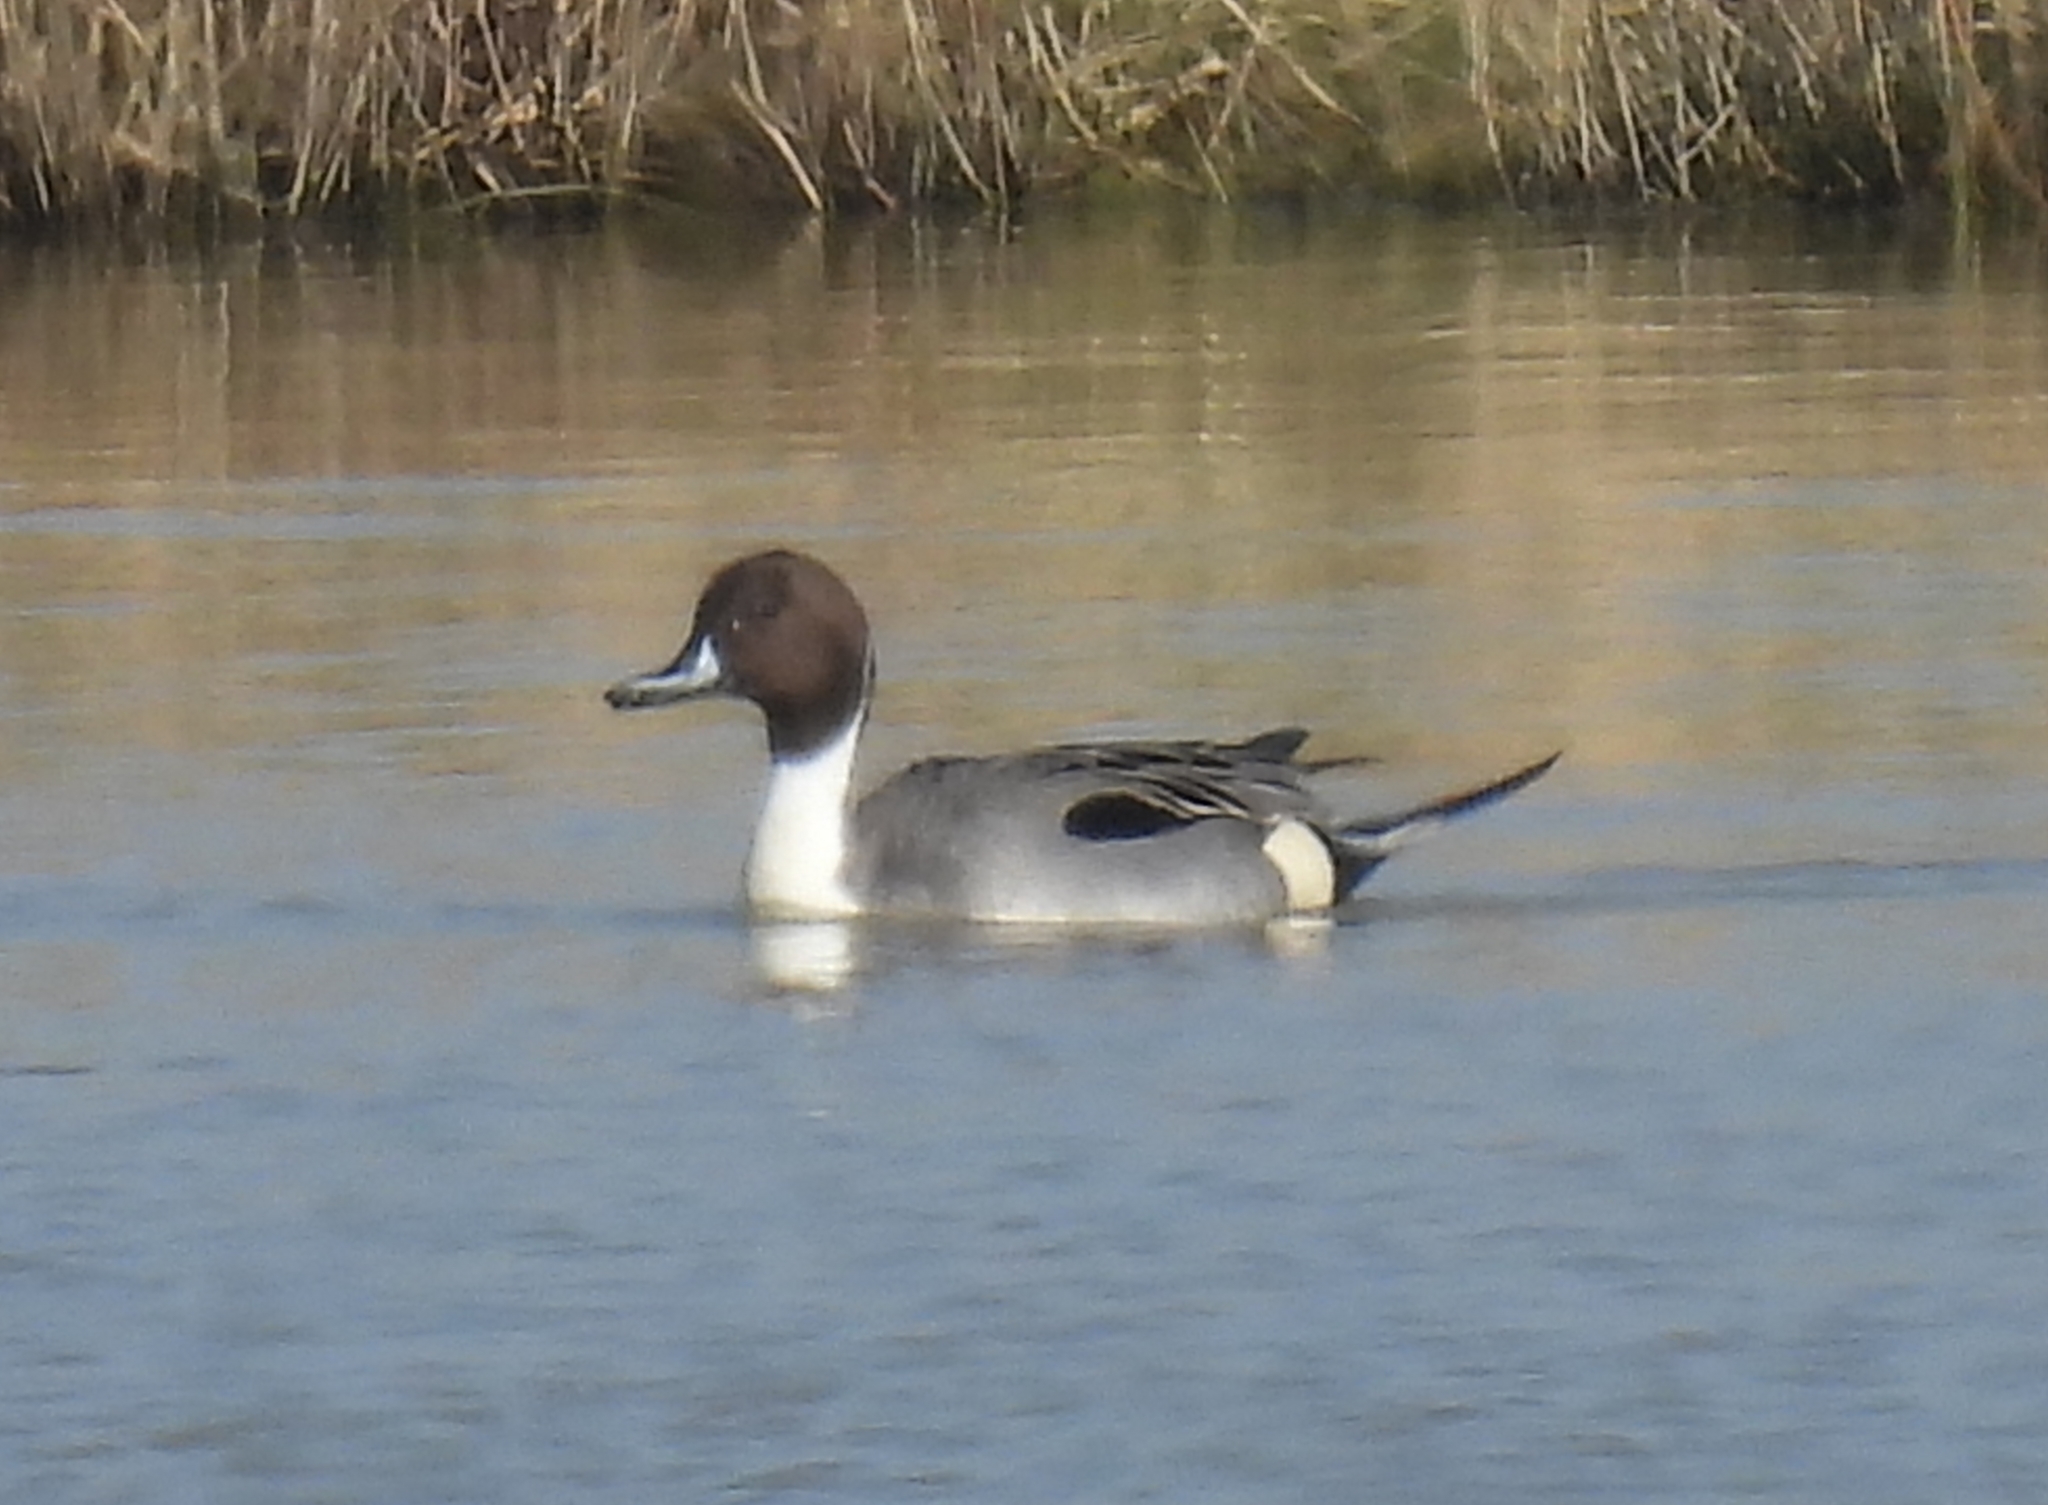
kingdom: Animalia
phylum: Chordata
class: Aves
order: Anseriformes
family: Anatidae
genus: Anas
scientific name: Anas acuta
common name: Northern pintail
